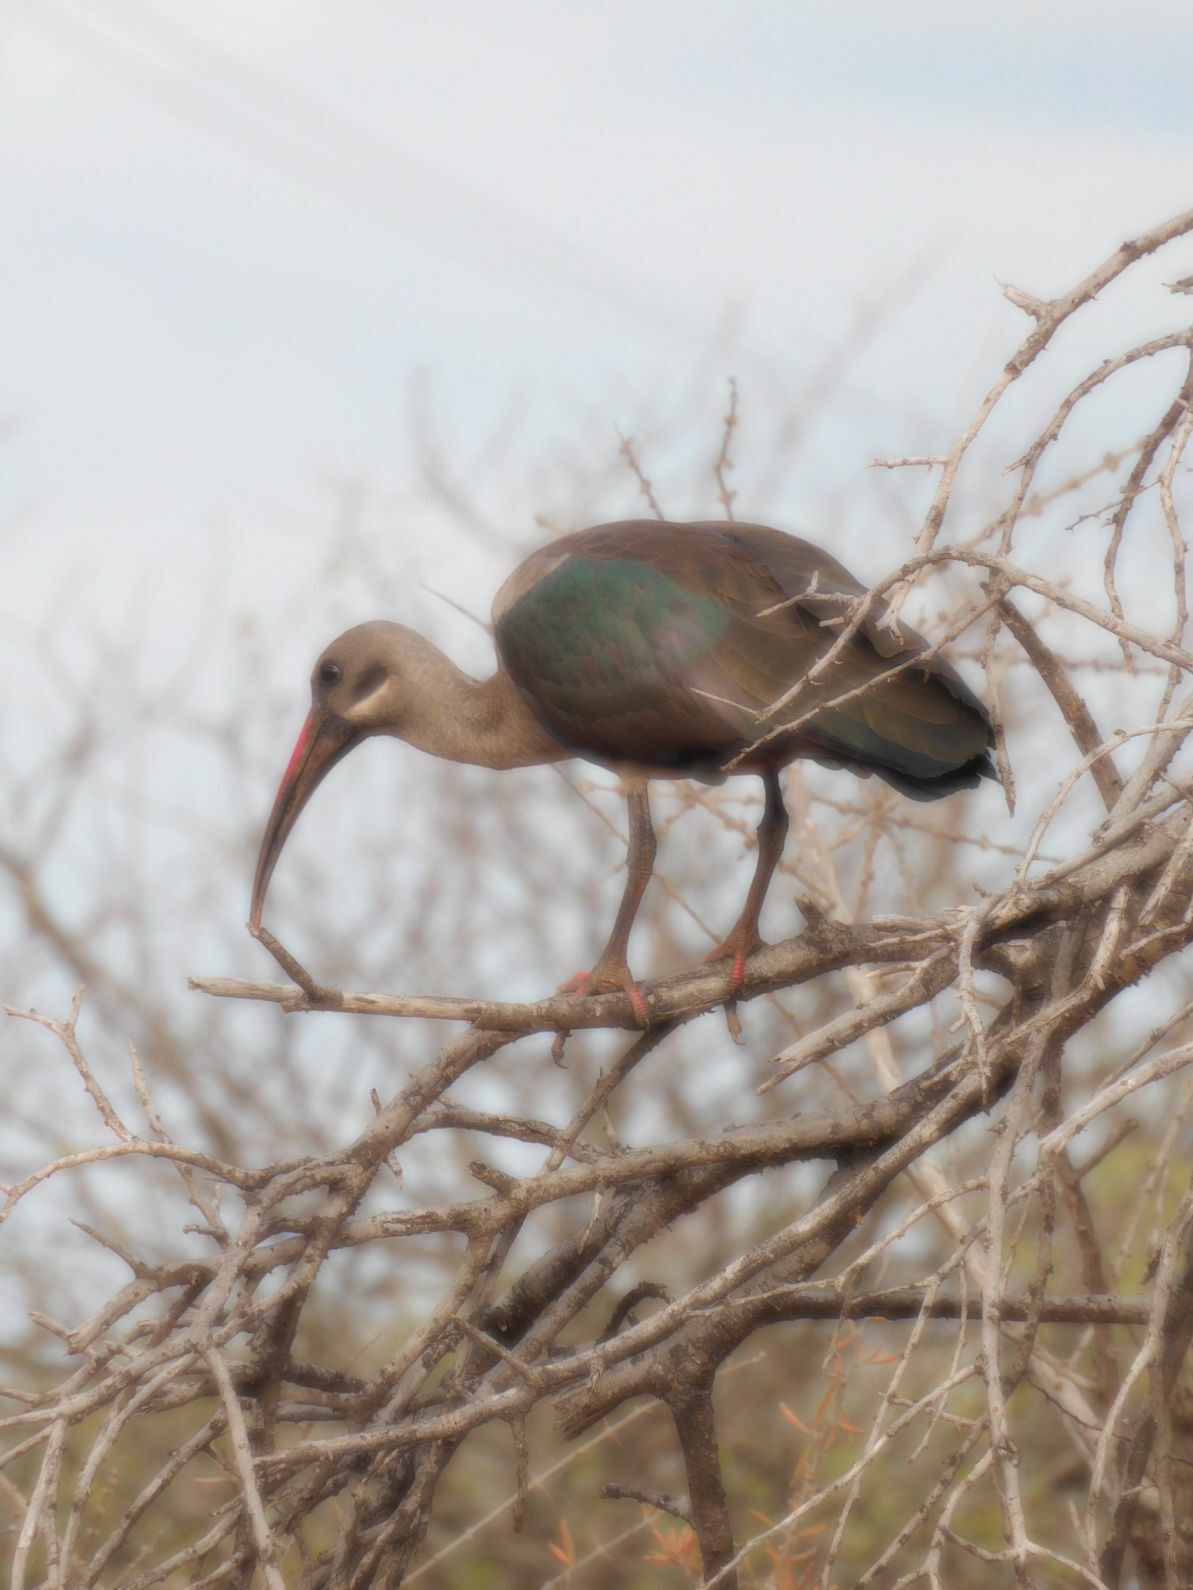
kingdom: Animalia
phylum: Chordata
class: Aves
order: Pelecaniformes
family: Threskiornithidae
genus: Bostrychia
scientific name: Bostrychia hagedash
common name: Hadada ibis
